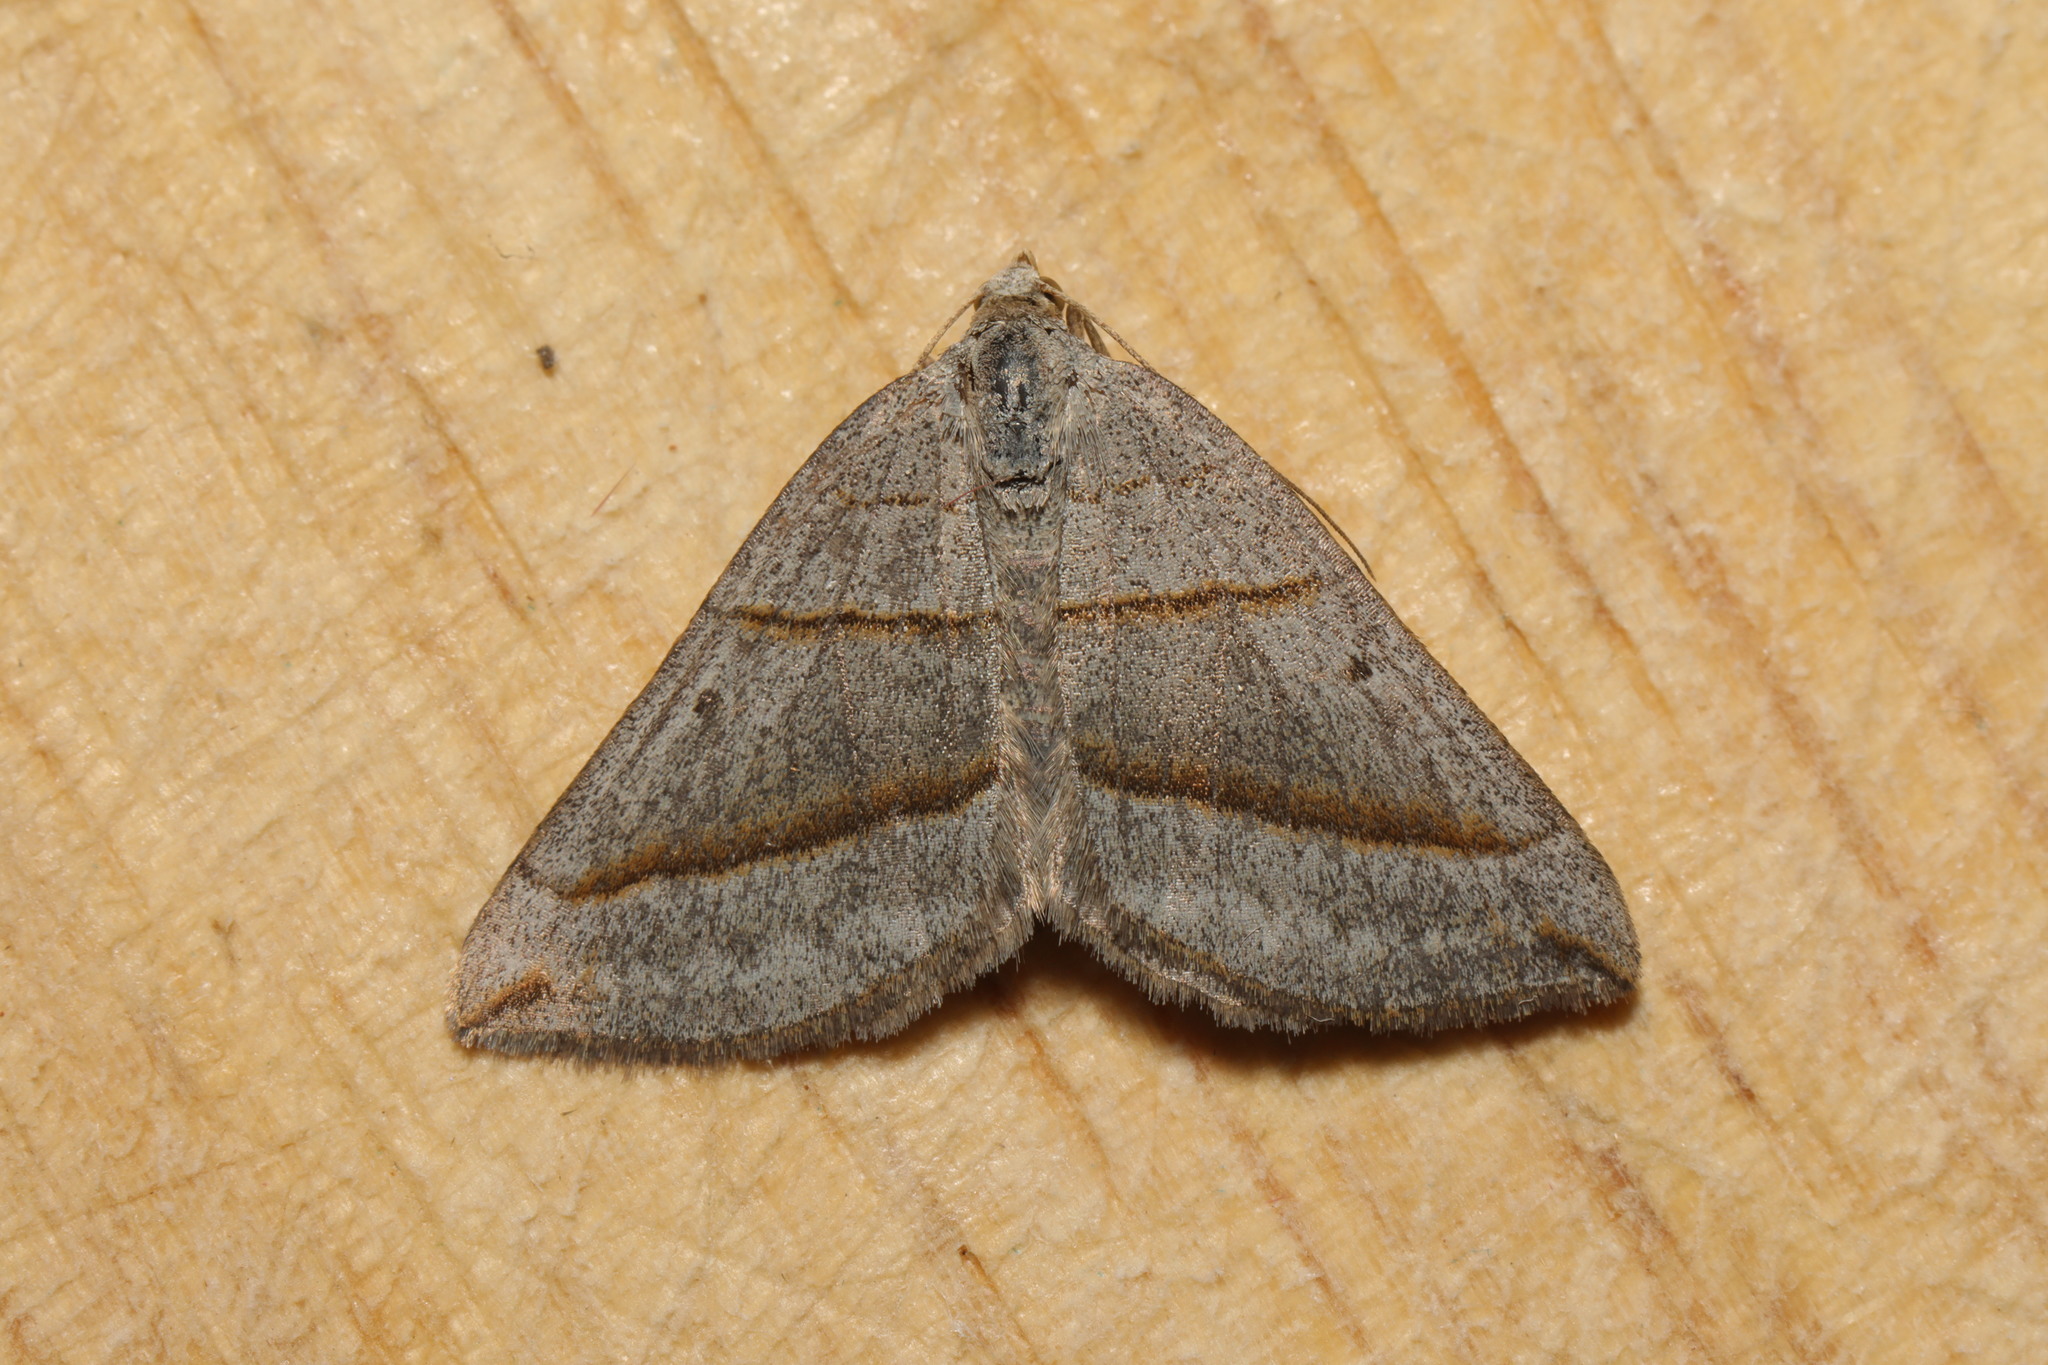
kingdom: Animalia
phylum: Arthropoda
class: Insecta
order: Lepidoptera
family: Geometridae
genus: Scotopteryx
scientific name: Scotopteryx luridata
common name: July belle
